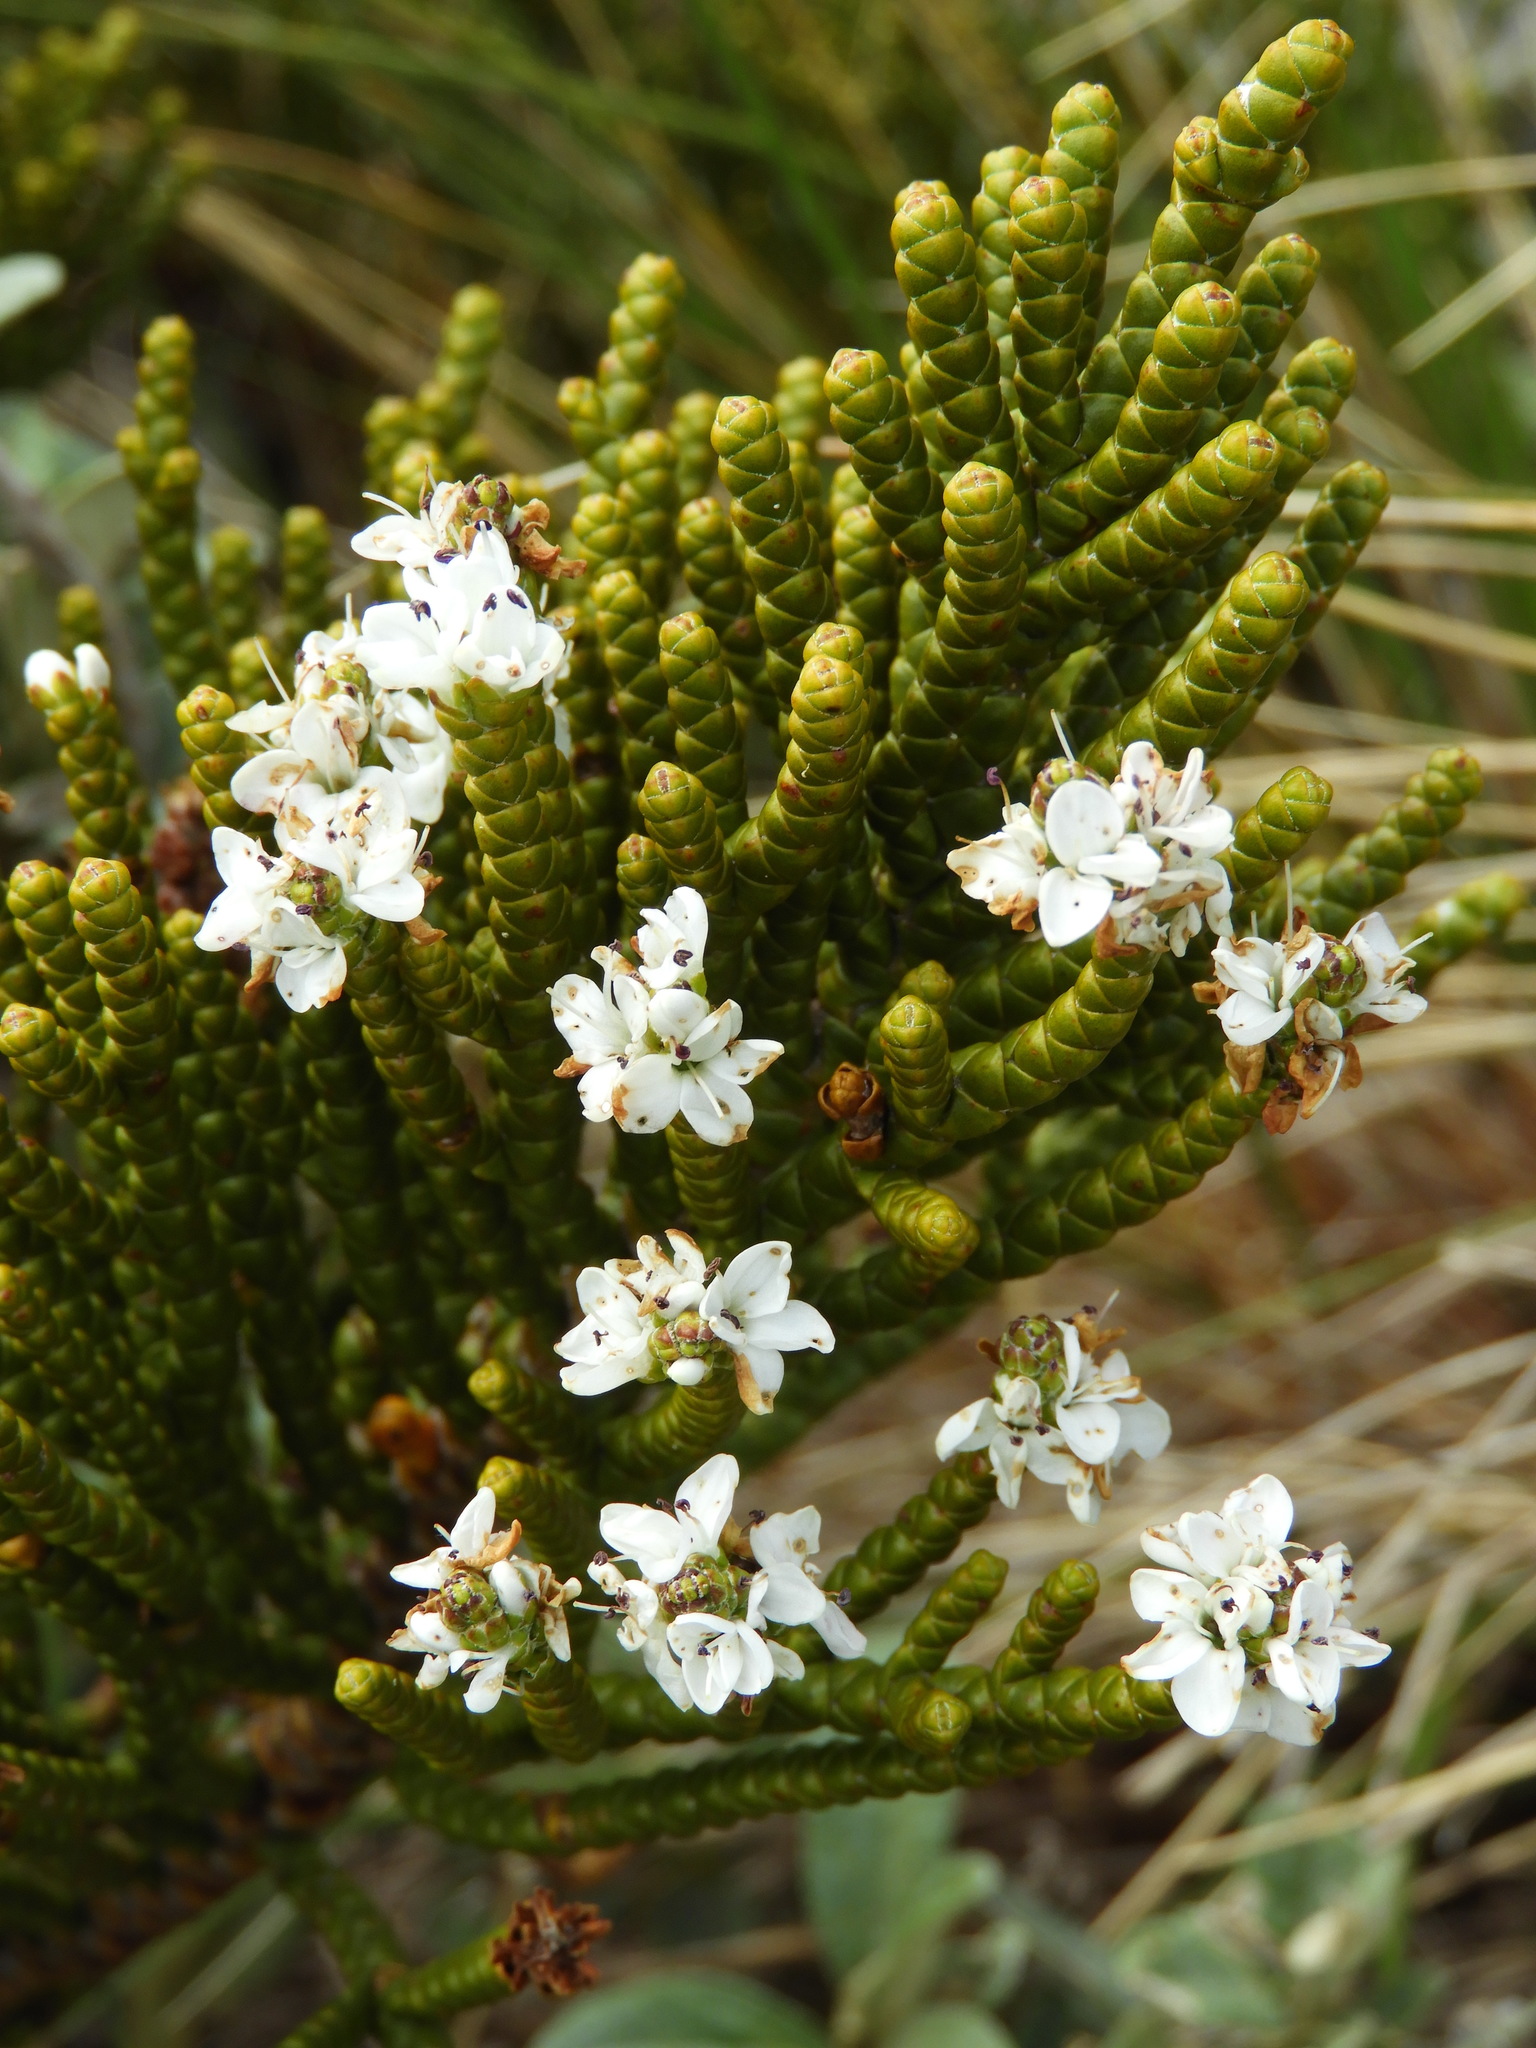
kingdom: Plantae
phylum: Tracheophyta
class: Magnoliopsida
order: Lamiales
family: Plantaginaceae
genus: Veronica
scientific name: Veronica hectorii
